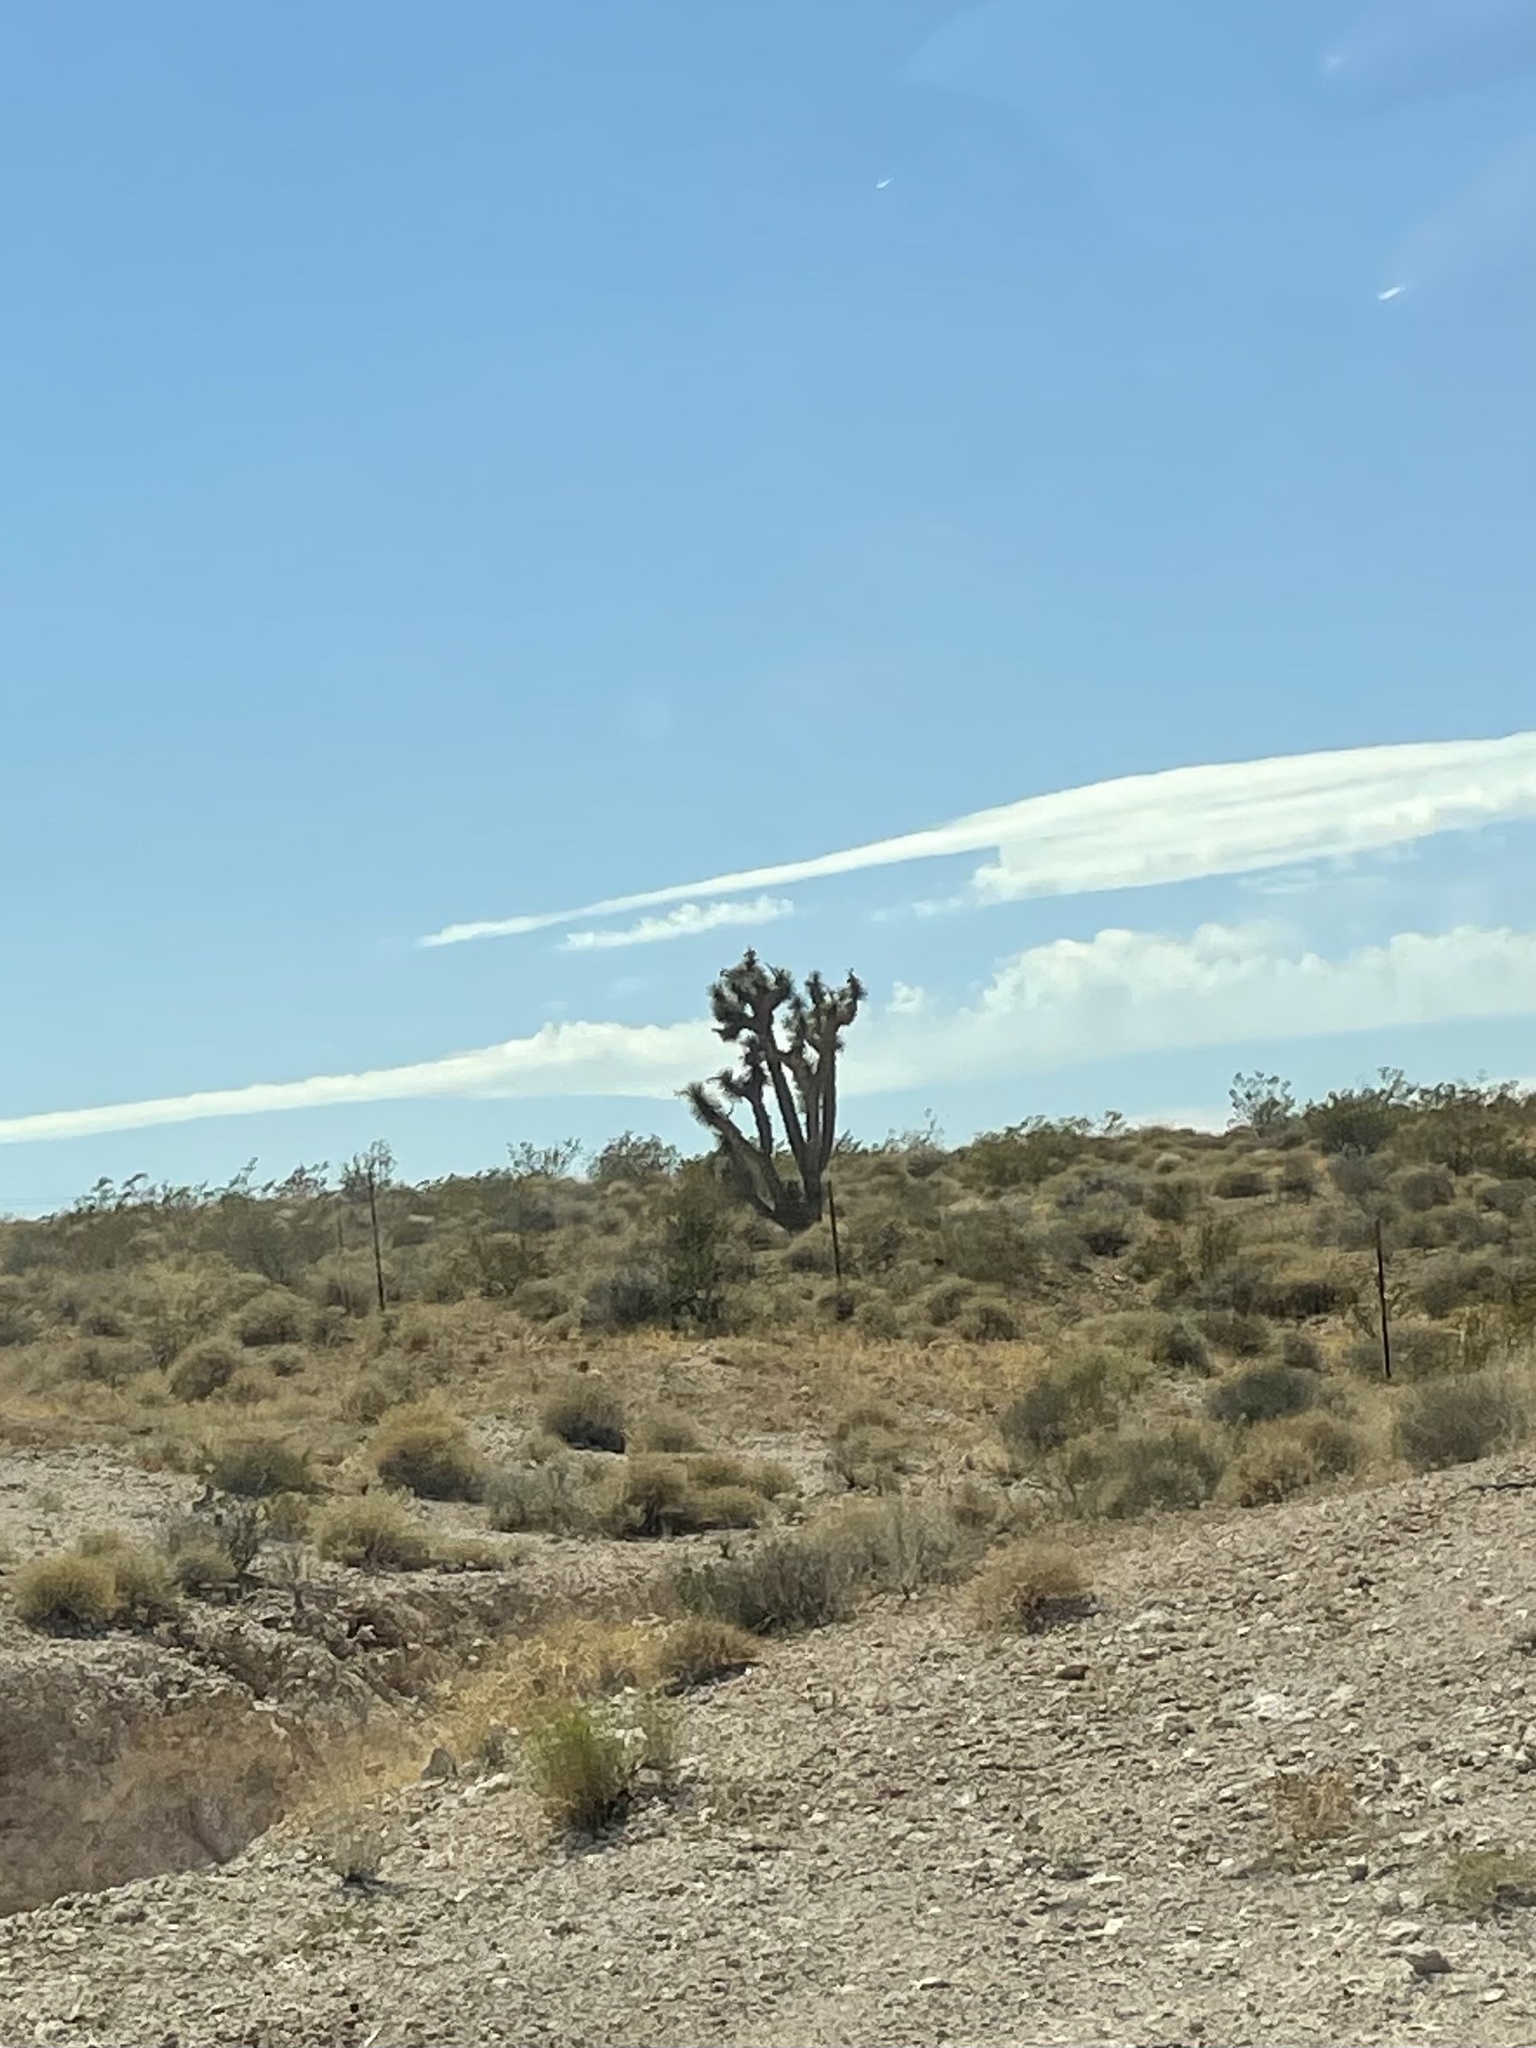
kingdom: Plantae
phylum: Tracheophyta
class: Liliopsida
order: Asparagales
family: Asparagaceae
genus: Yucca
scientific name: Yucca brevifolia
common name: Joshua tree
